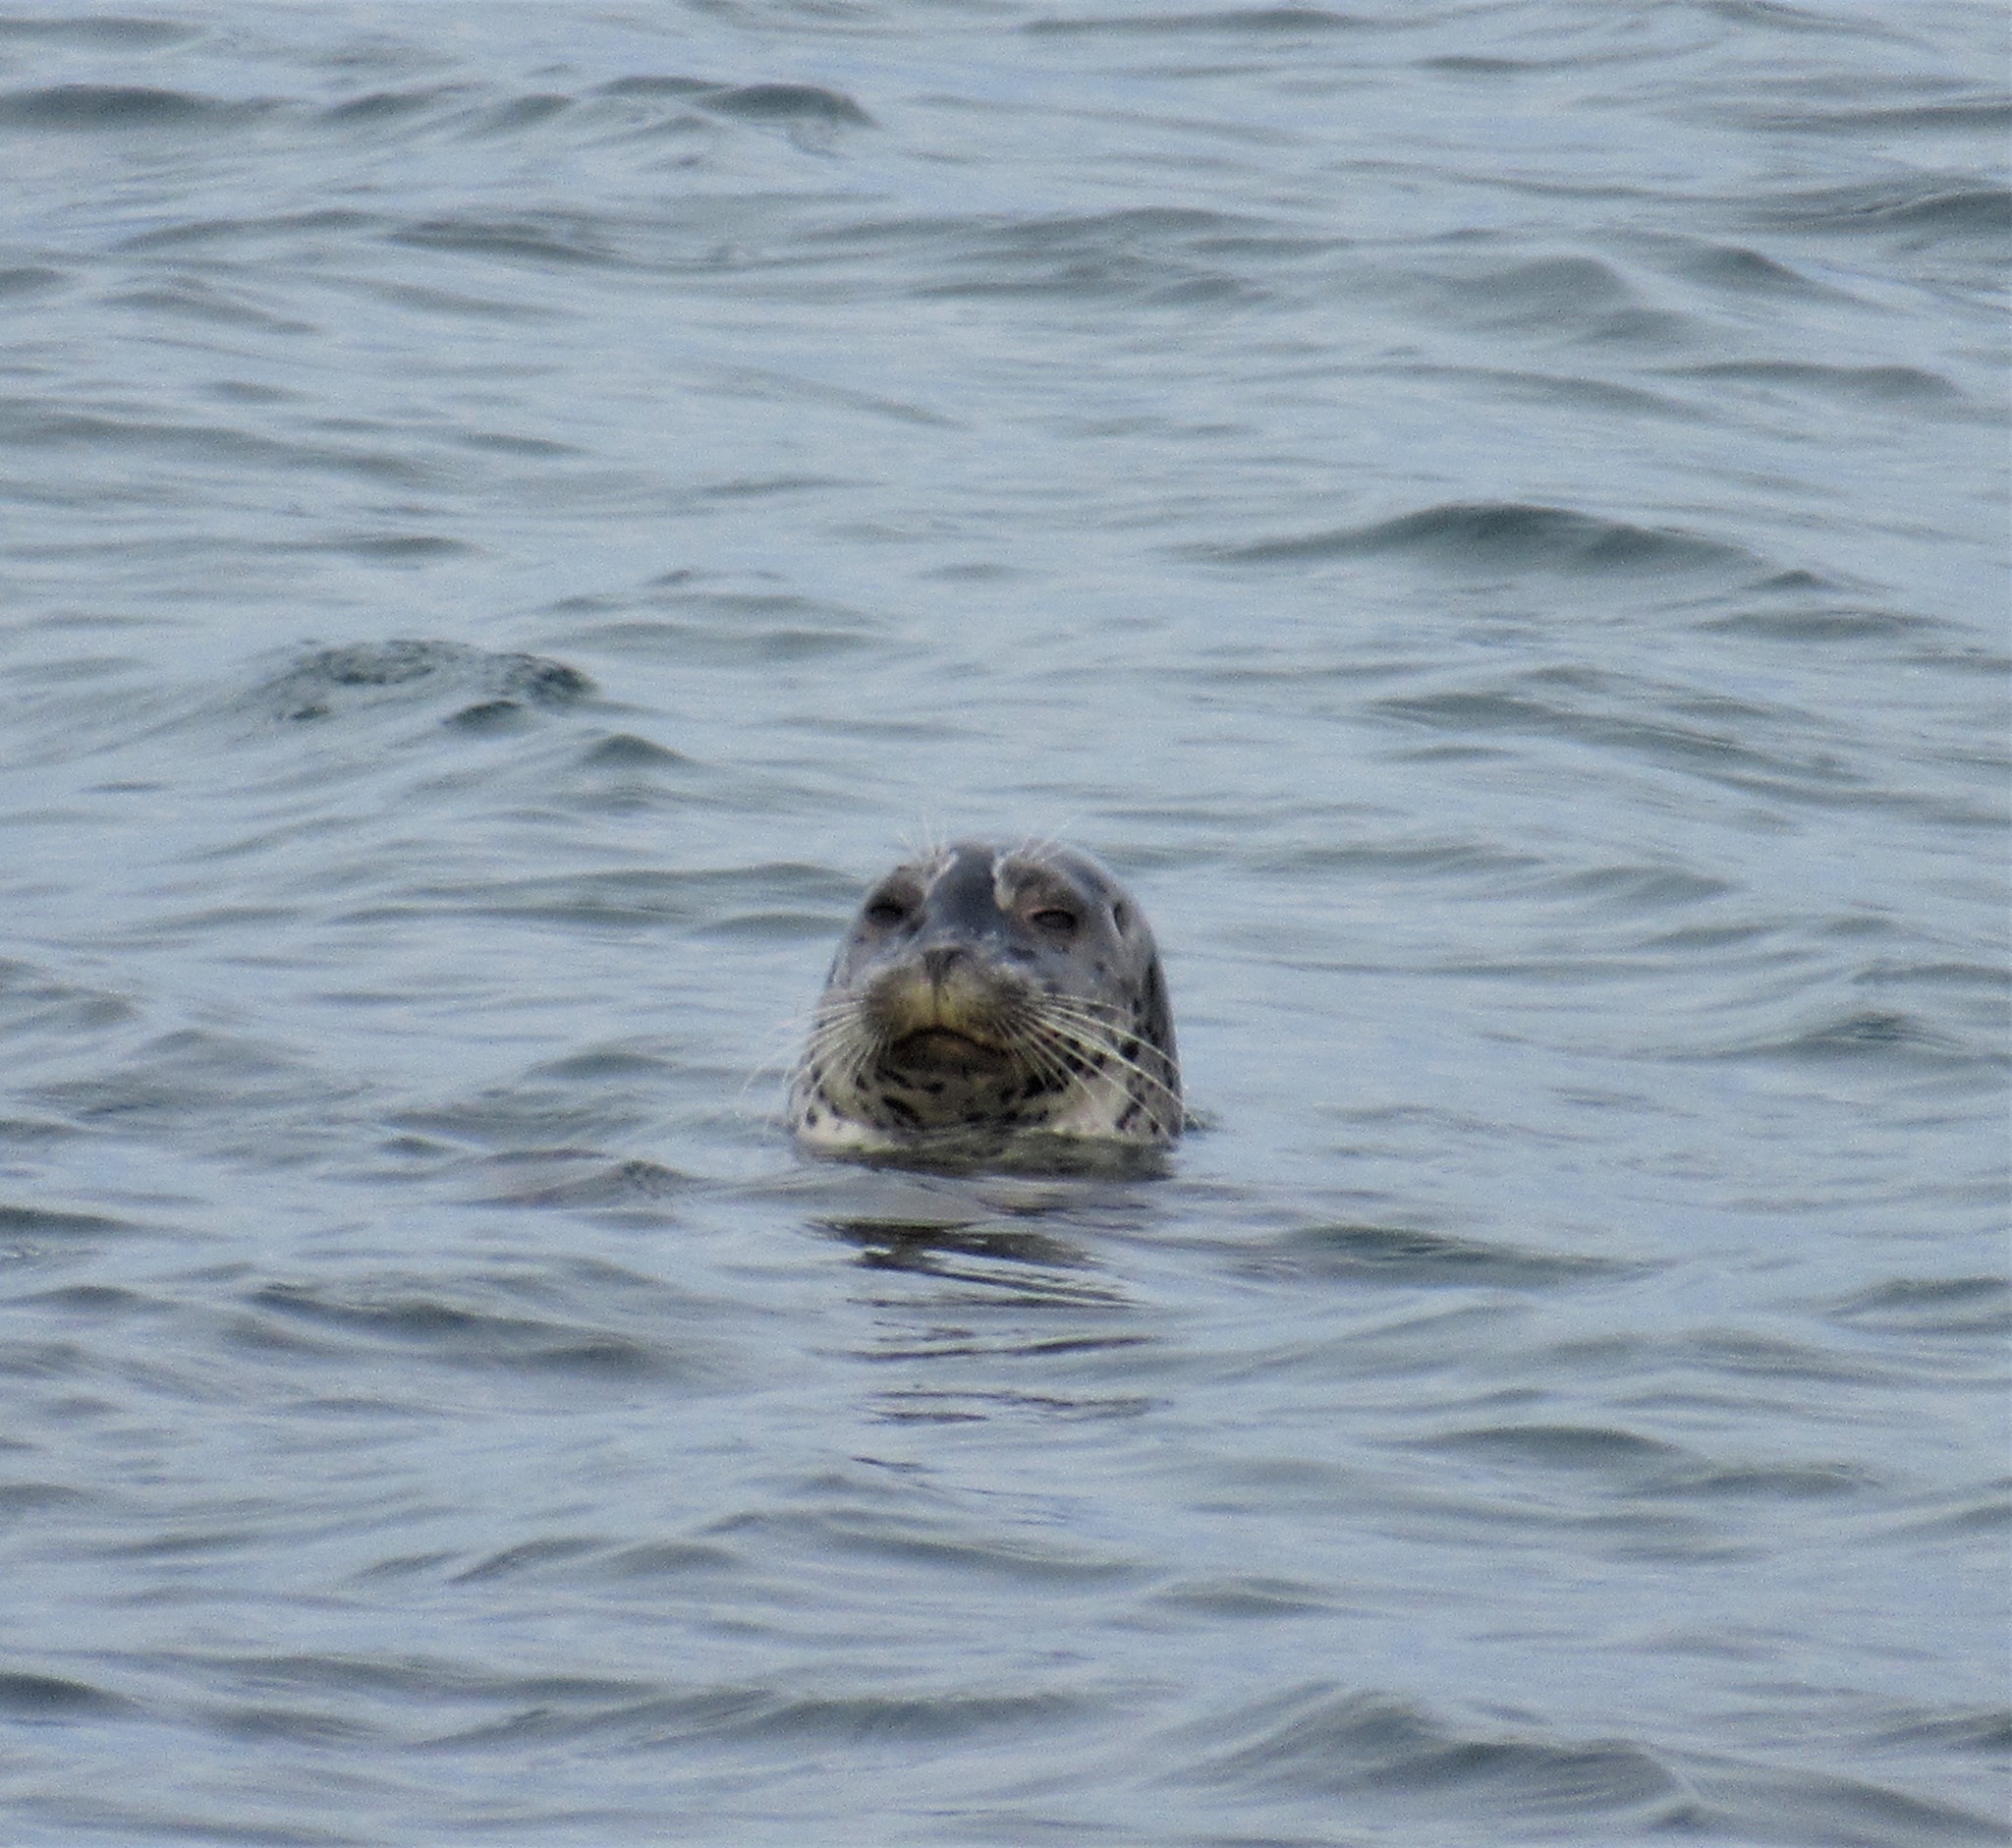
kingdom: Animalia
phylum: Chordata
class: Mammalia
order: Carnivora
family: Phocidae
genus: Phoca
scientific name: Phoca vitulina
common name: Harbor seal
